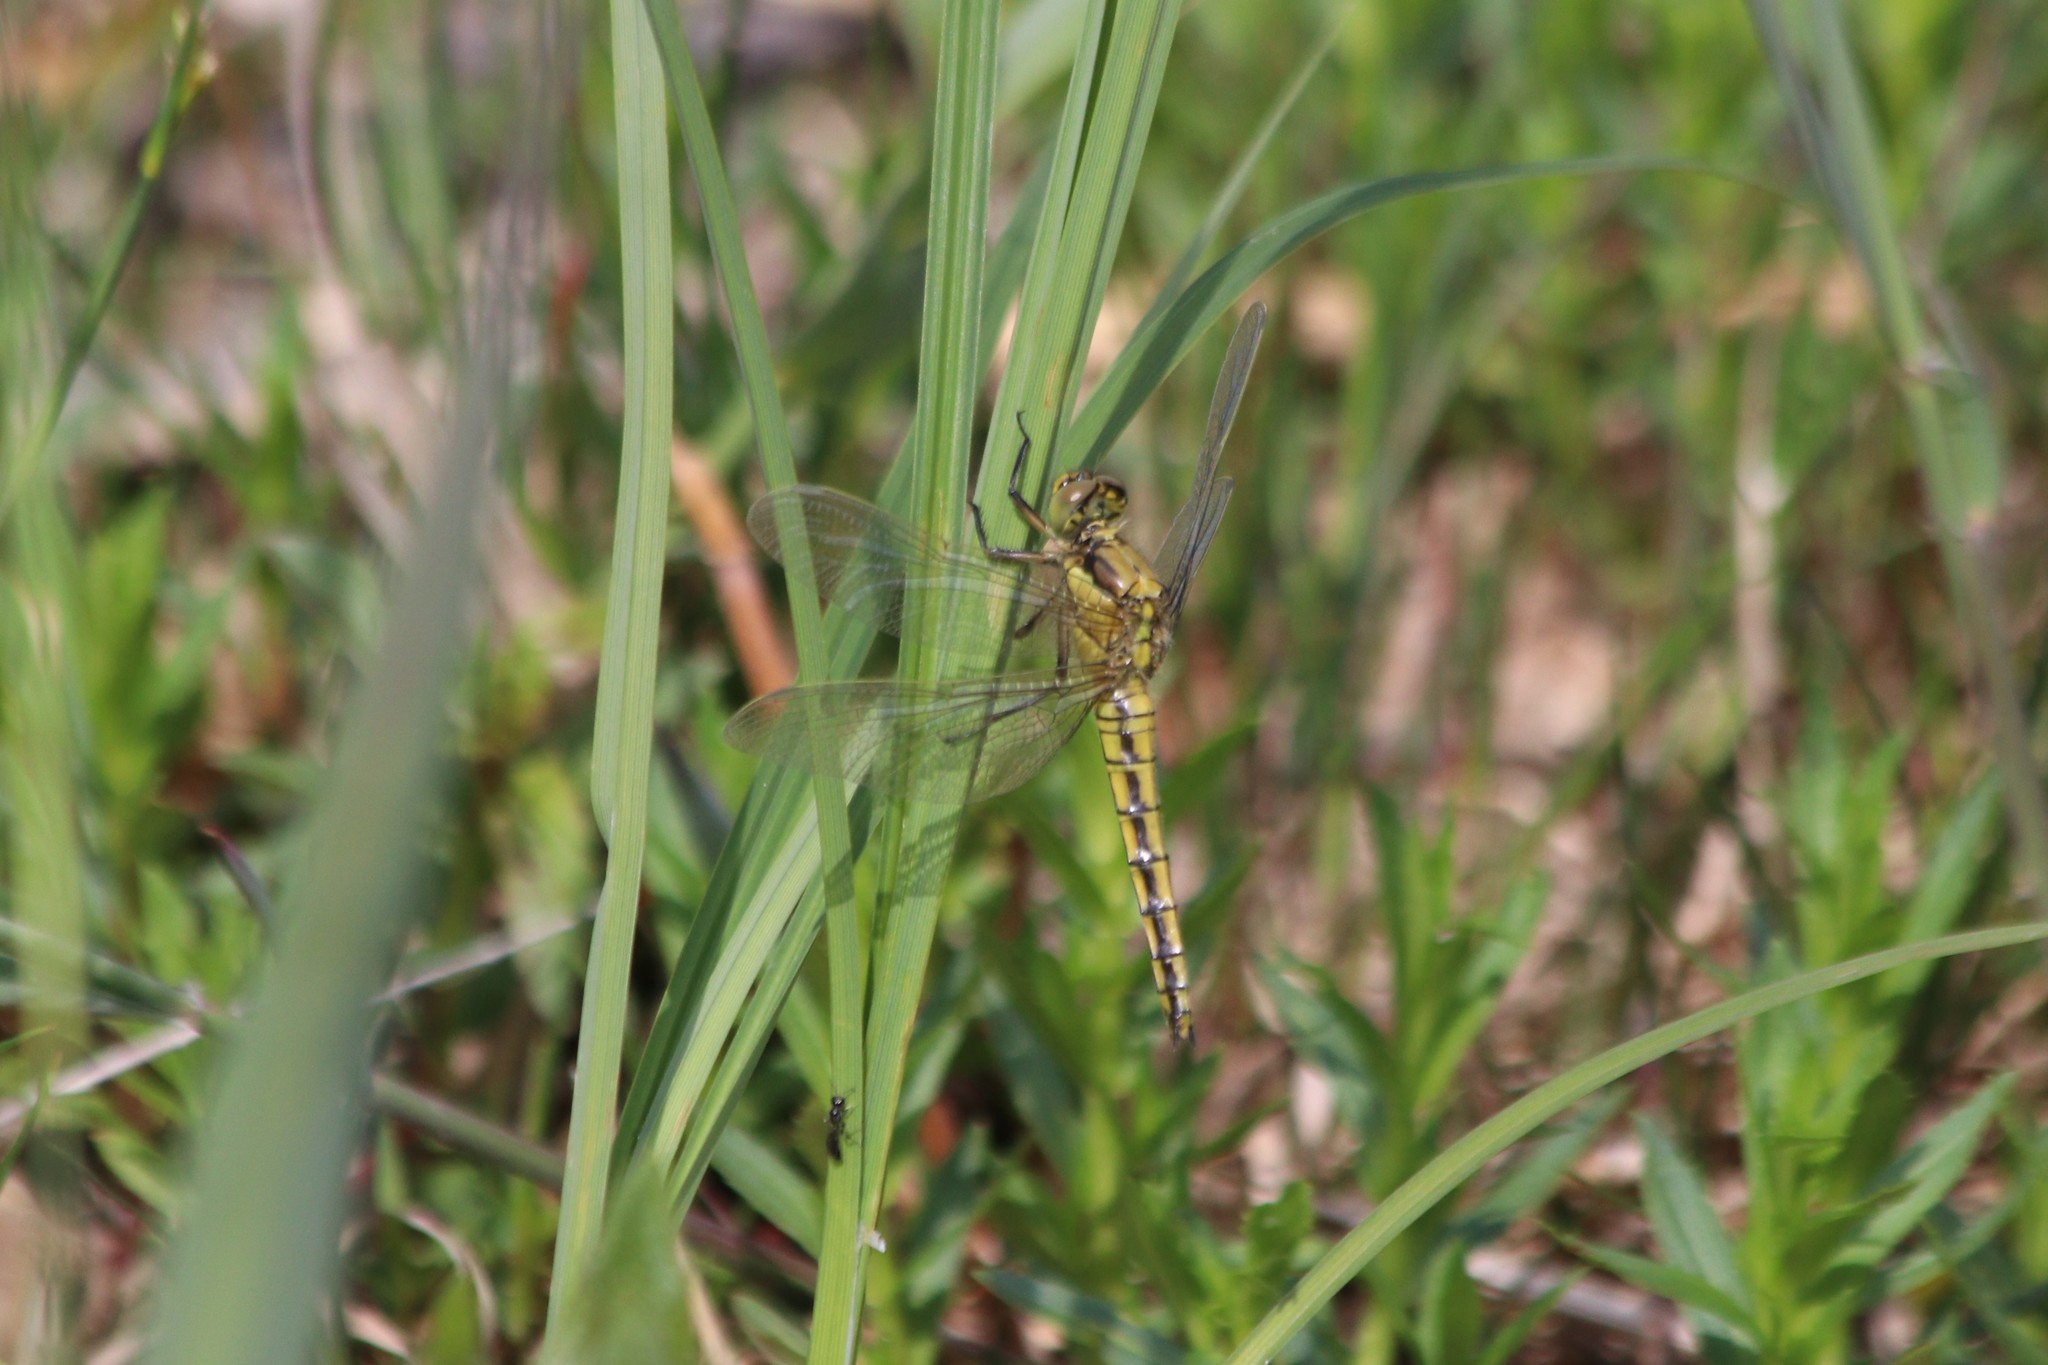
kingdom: Animalia
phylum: Arthropoda
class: Insecta
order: Odonata
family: Libellulidae
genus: Orthetrum
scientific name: Orthetrum cancellatum
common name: Black-tailed skimmer
